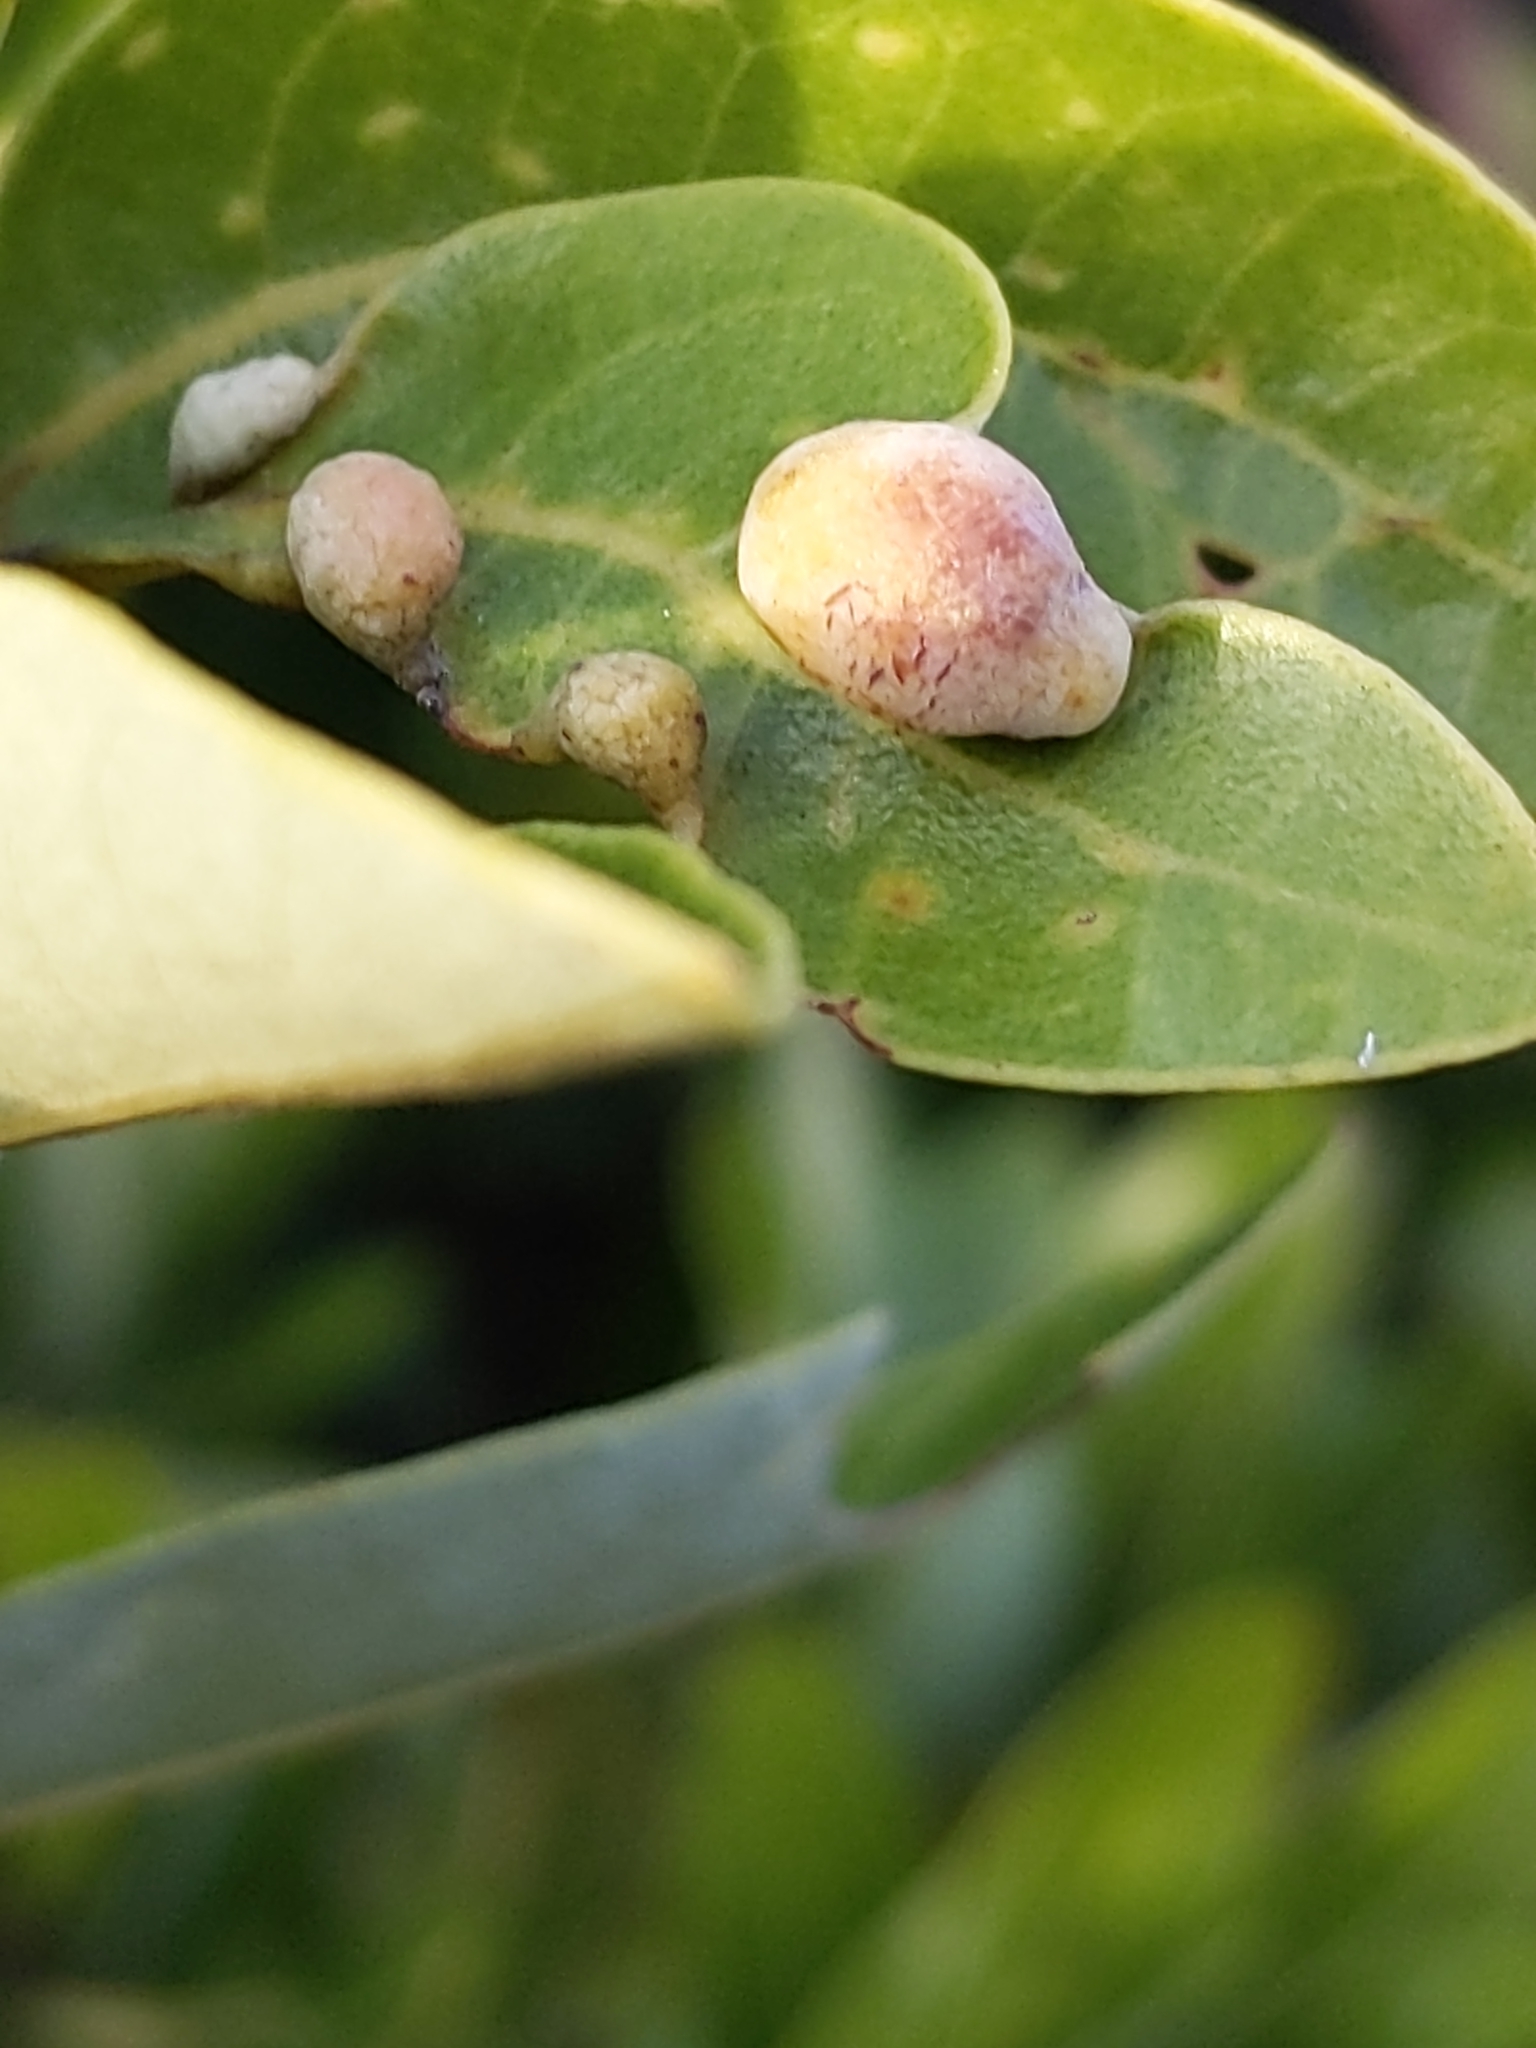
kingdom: Animalia
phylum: Arthropoda
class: Insecta
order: Hemiptera
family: Triozidae
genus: Trioza
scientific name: Trioza magnoliae
